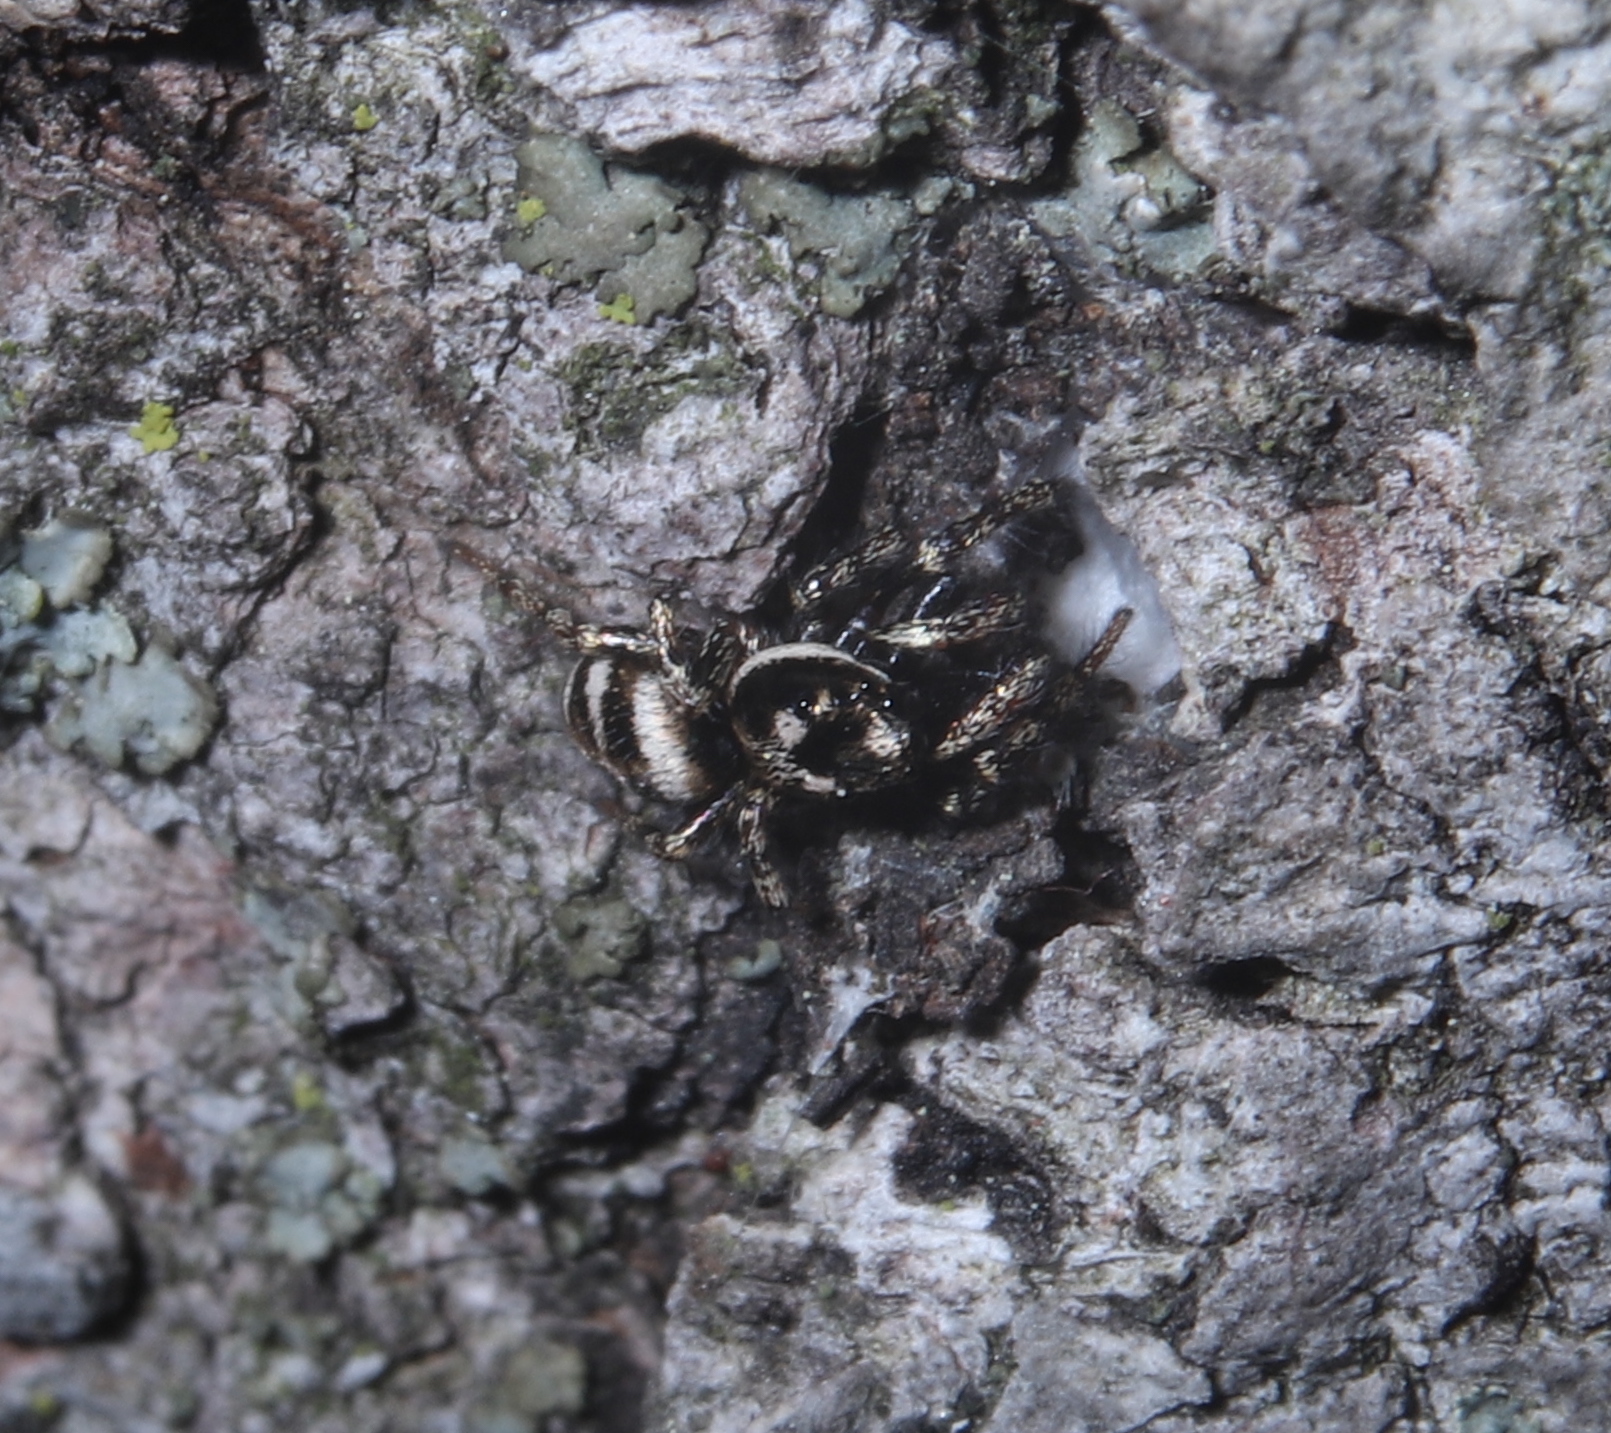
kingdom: Animalia
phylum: Arthropoda
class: Arachnida
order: Araneae
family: Salticidae
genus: Salticus
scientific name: Salticus scenicus
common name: Zebra jumper
